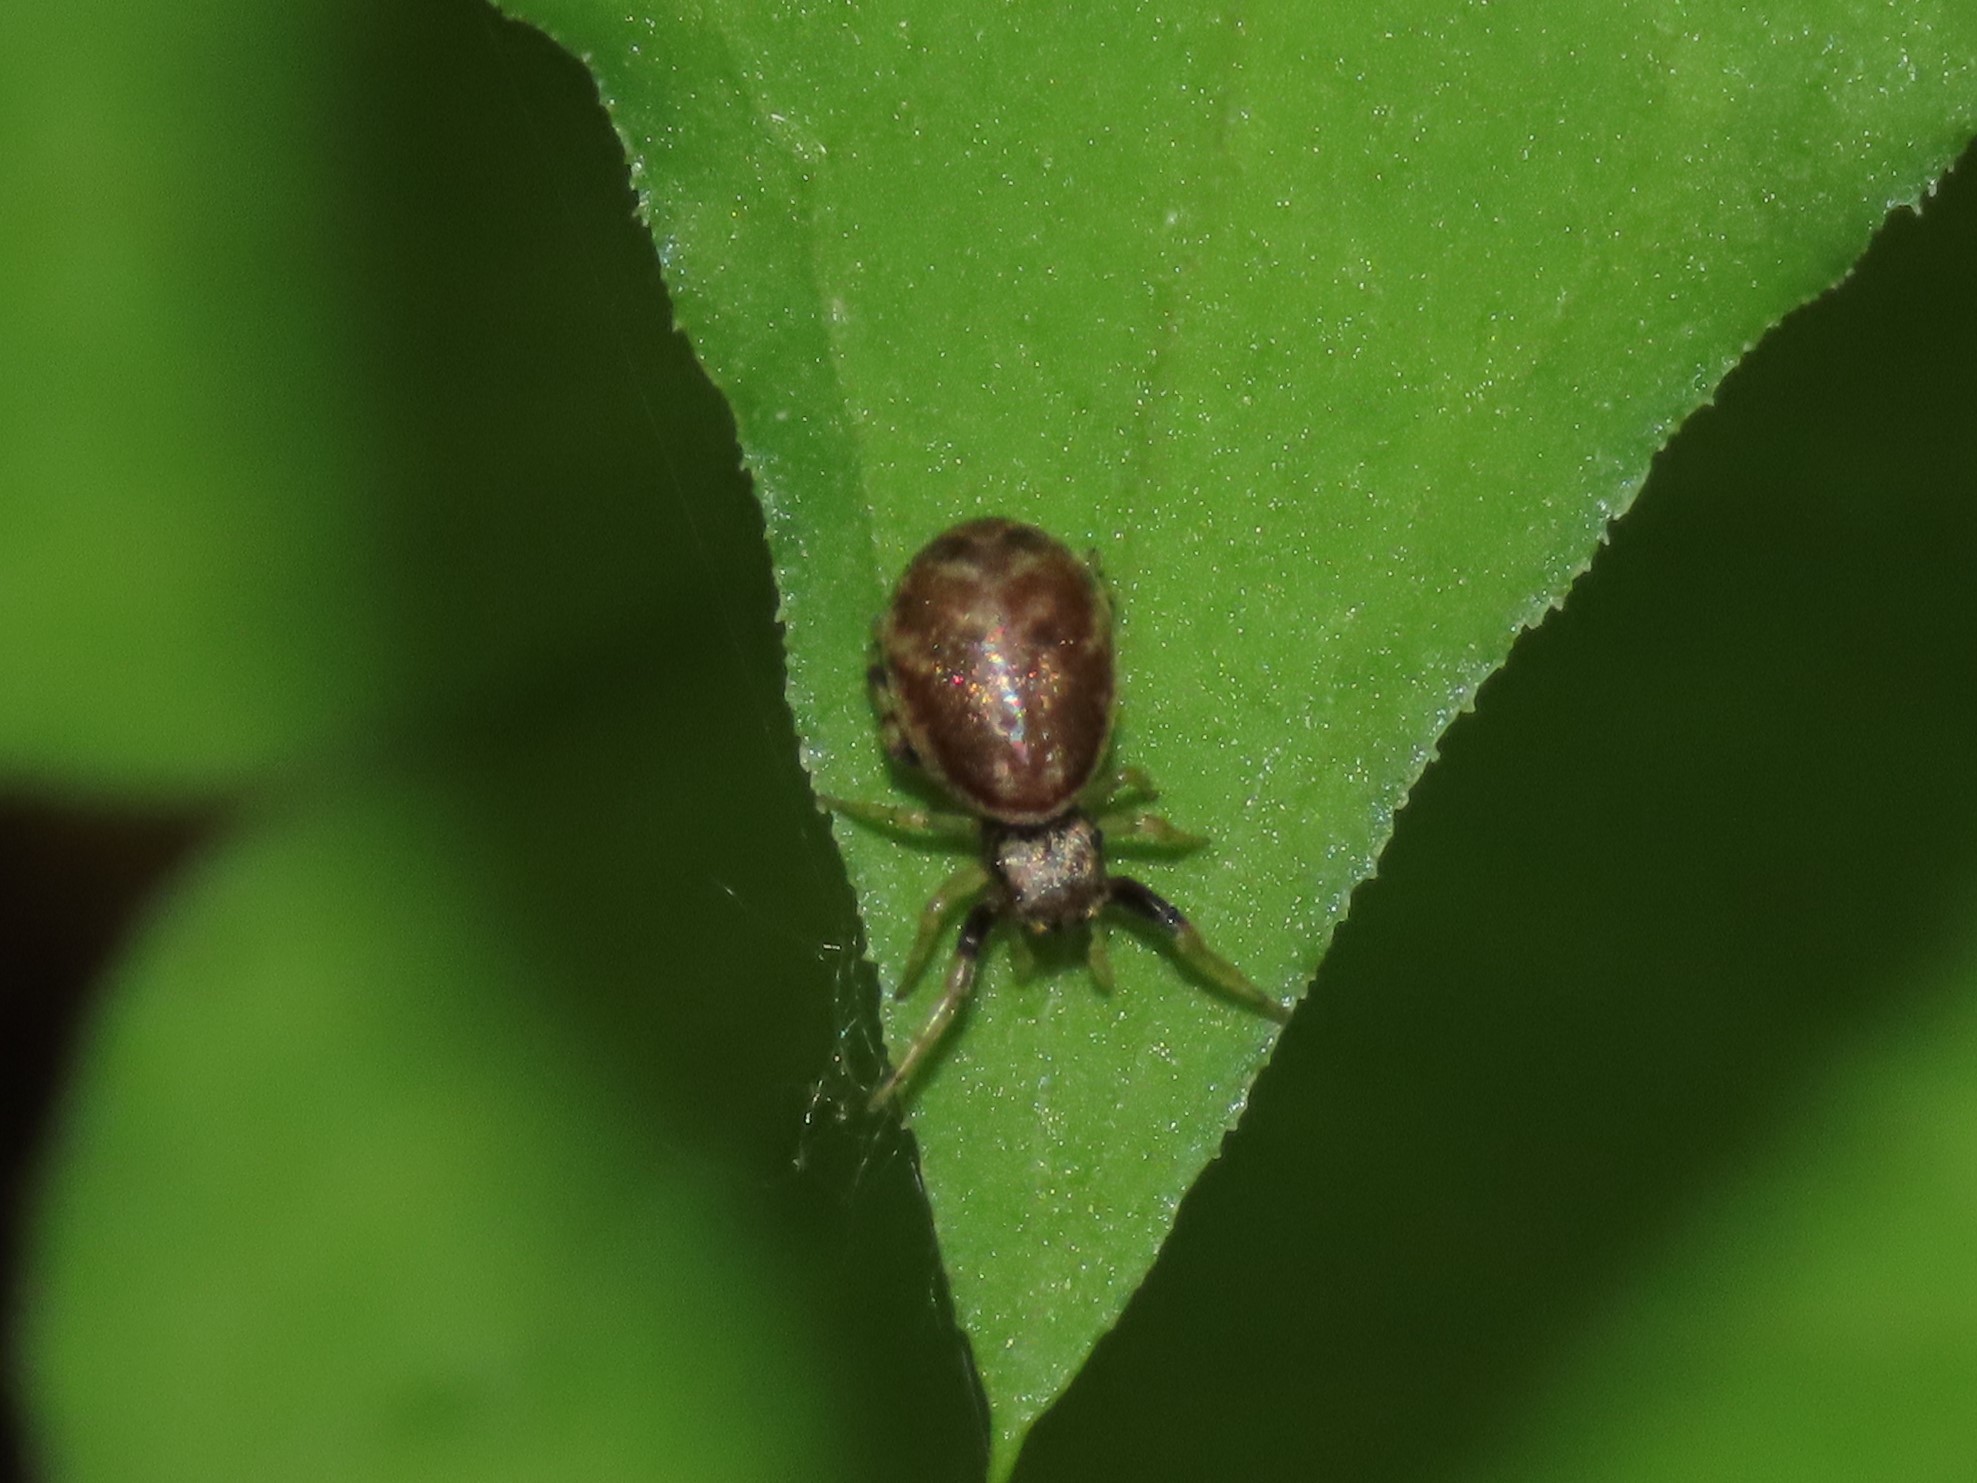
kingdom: Animalia
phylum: Arthropoda
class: Arachnida
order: Araneae
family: Salticidae
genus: Zygoballus
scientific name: Zygoballus rufipes
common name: Jumping spiders
